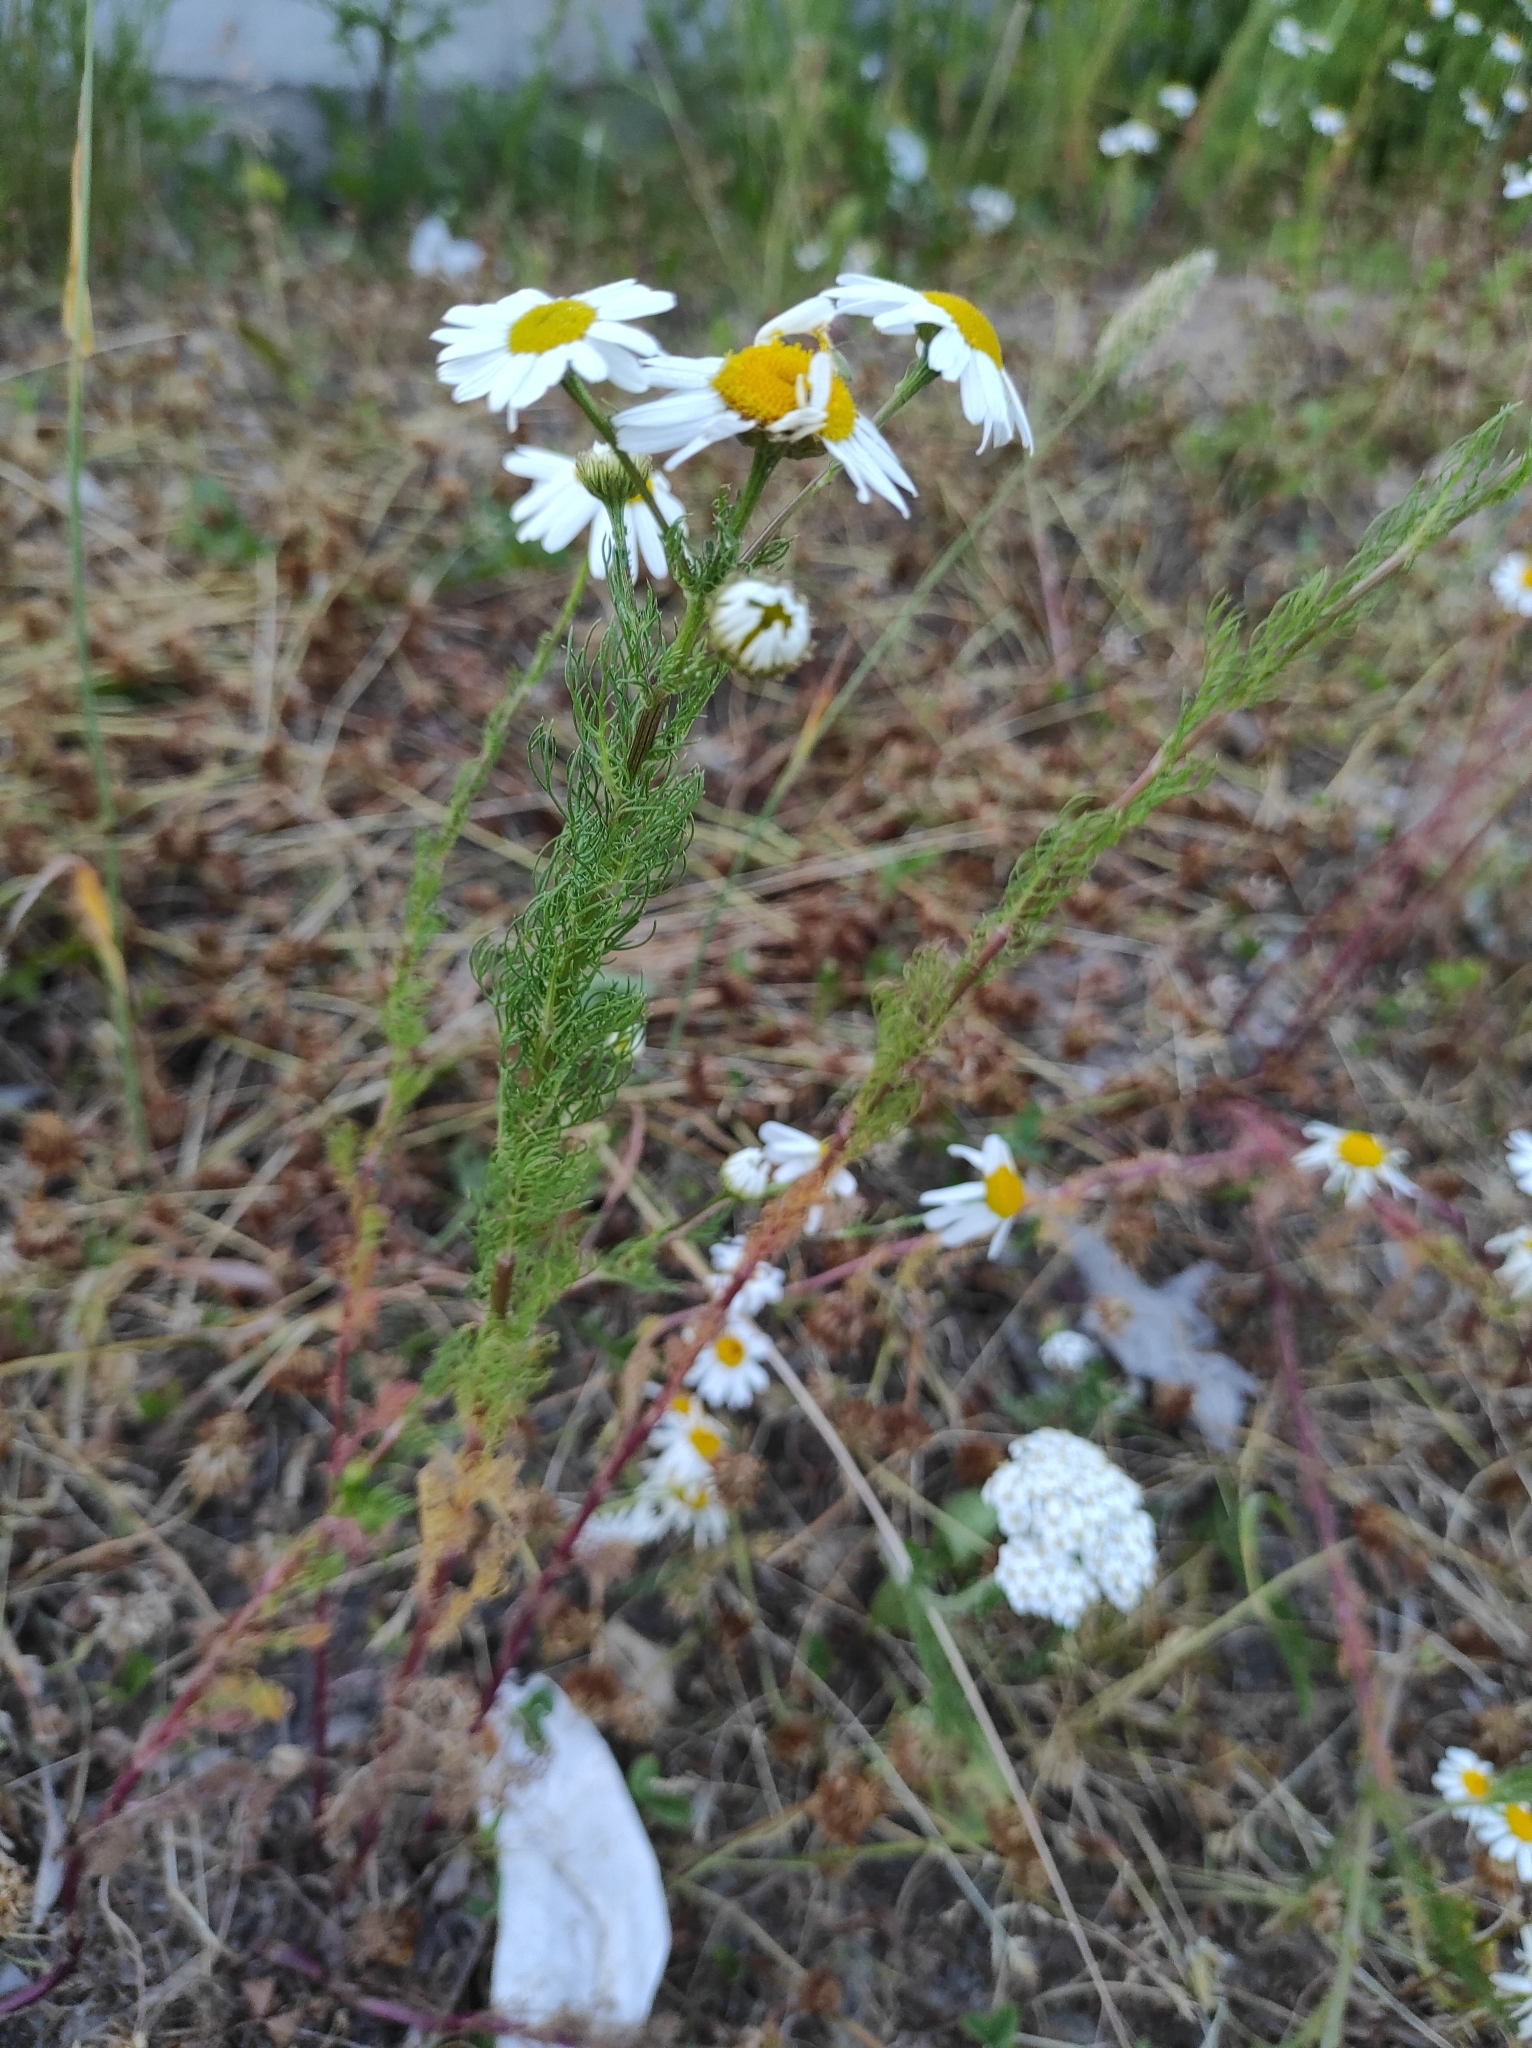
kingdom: Plantae
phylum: Tracheophyta
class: Magnoliopsida
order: Asterales
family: Asteraceae
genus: Tripleurospermum
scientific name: Tripleurospermum inodorum
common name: Scentless mayweed
